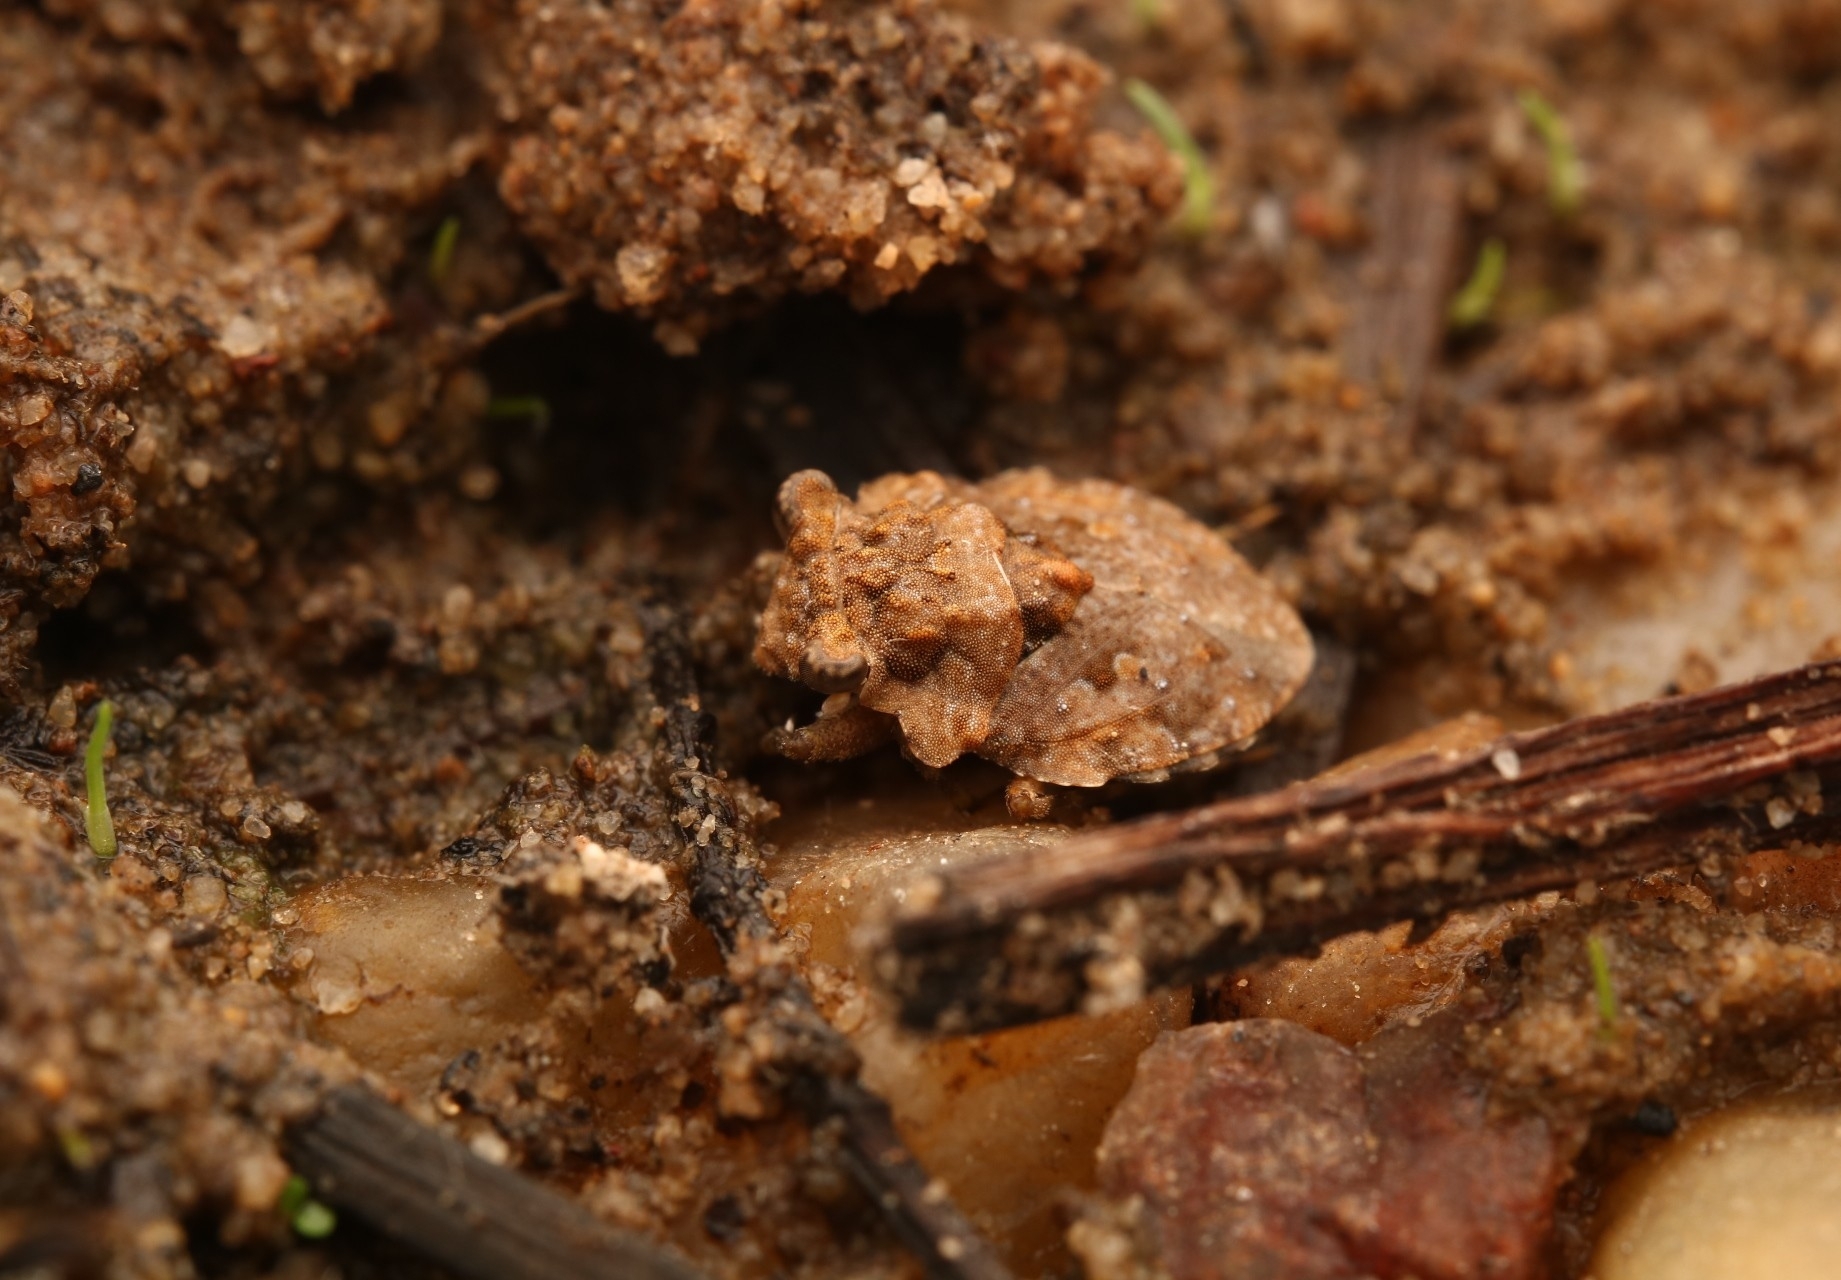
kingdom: Animalia
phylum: Arthropoda
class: Insecta
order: Hemiptera
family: Gelastocoridae
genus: Gelastocoris
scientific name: Gelastocoris oculatus
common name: Toad bug
